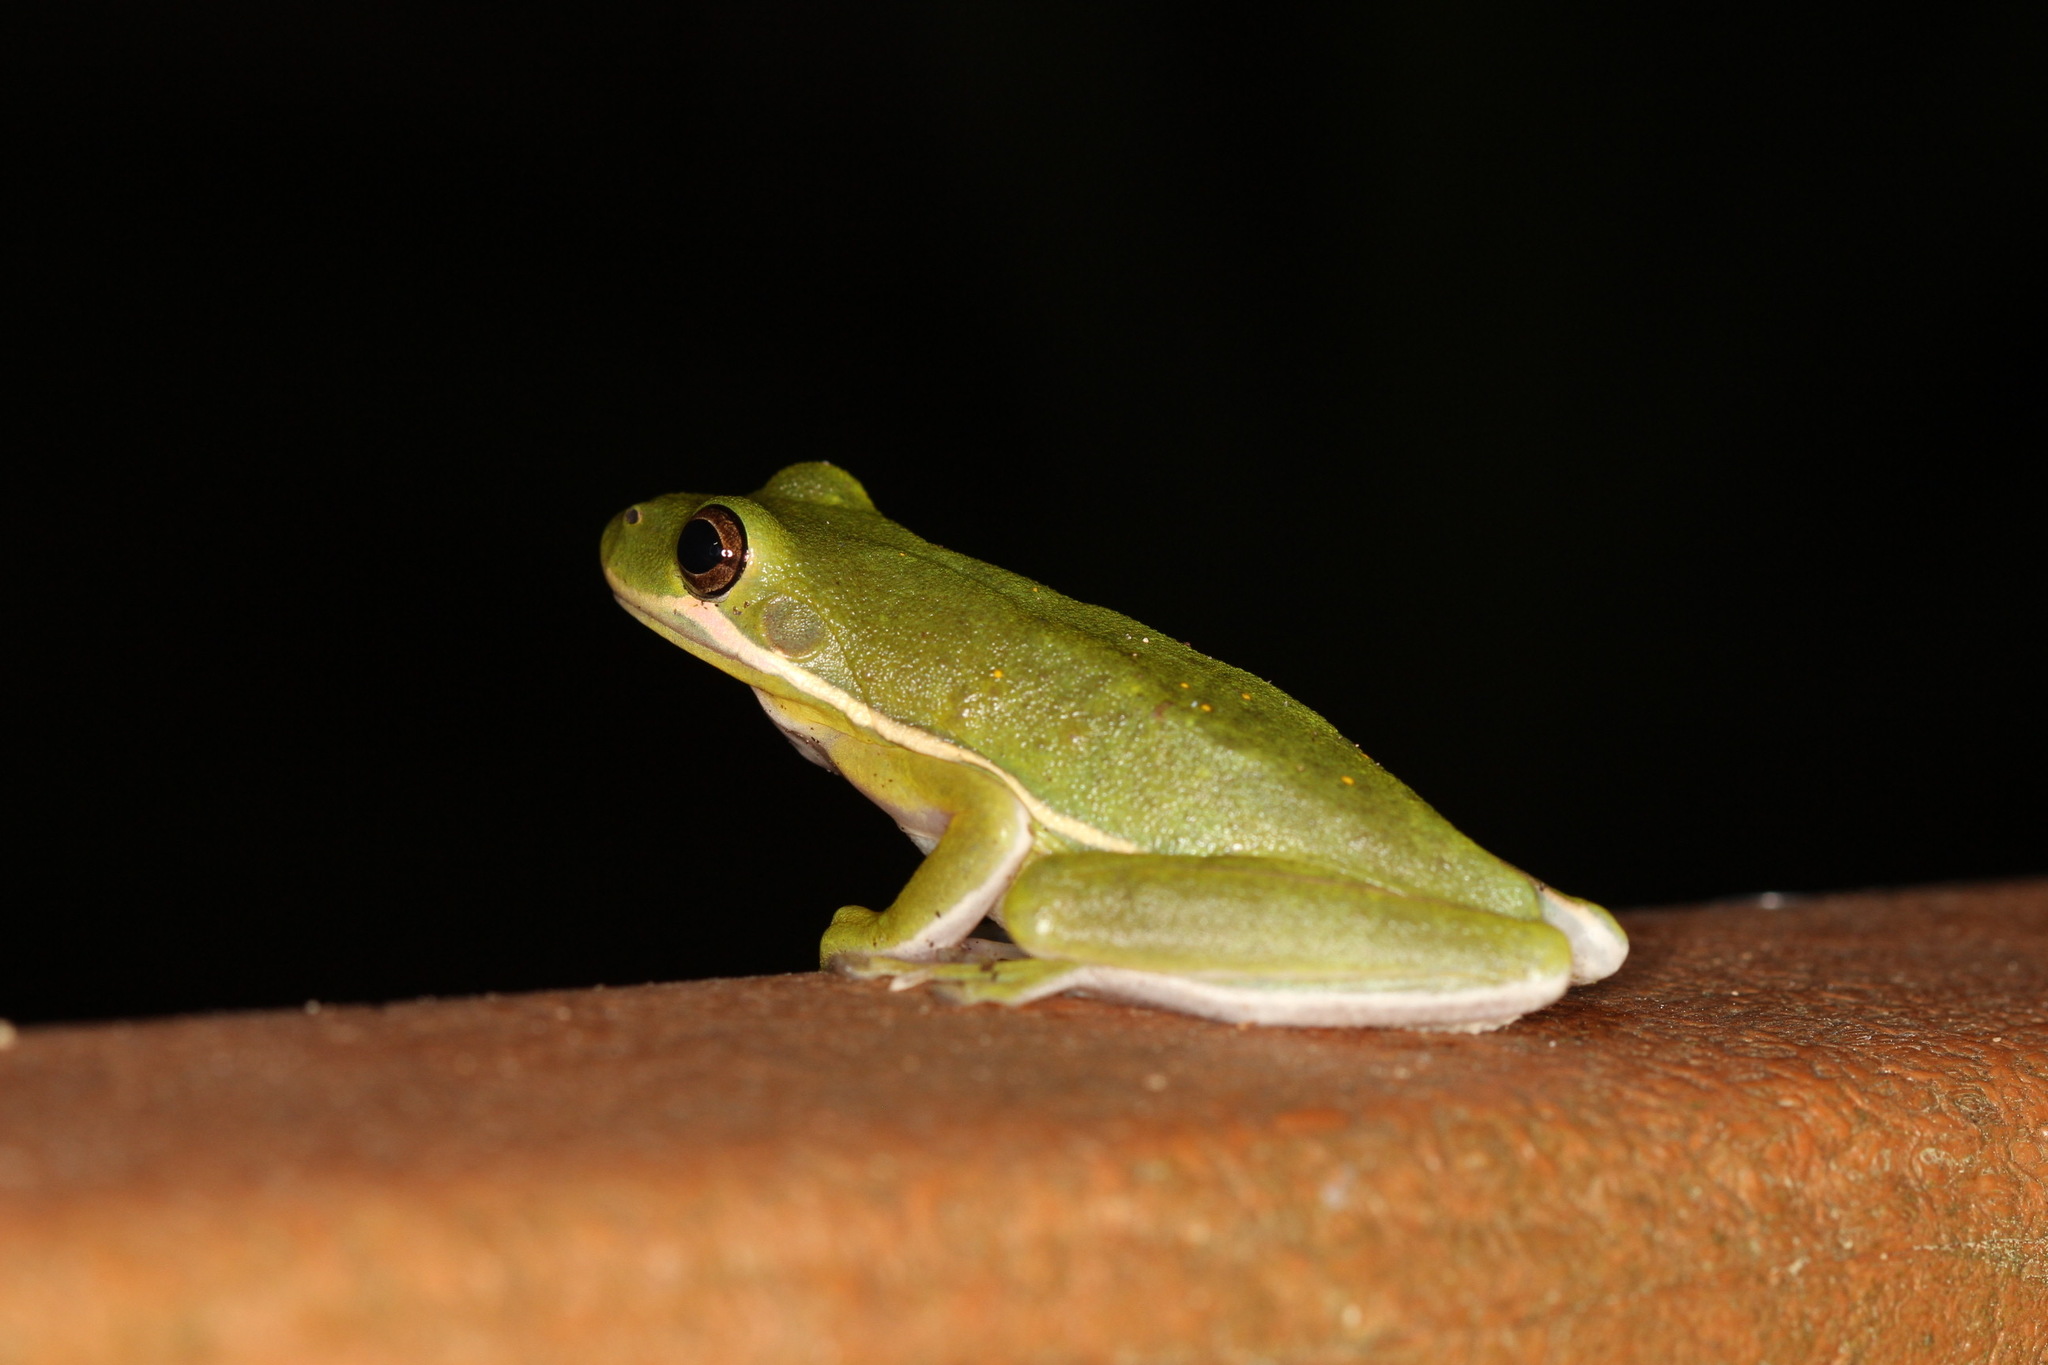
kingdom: Animalia
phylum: Chordata
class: Amphibia
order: Anura
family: Hylidae
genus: Dryophytes
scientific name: Dryophytes cinereus
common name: Green treefrog
